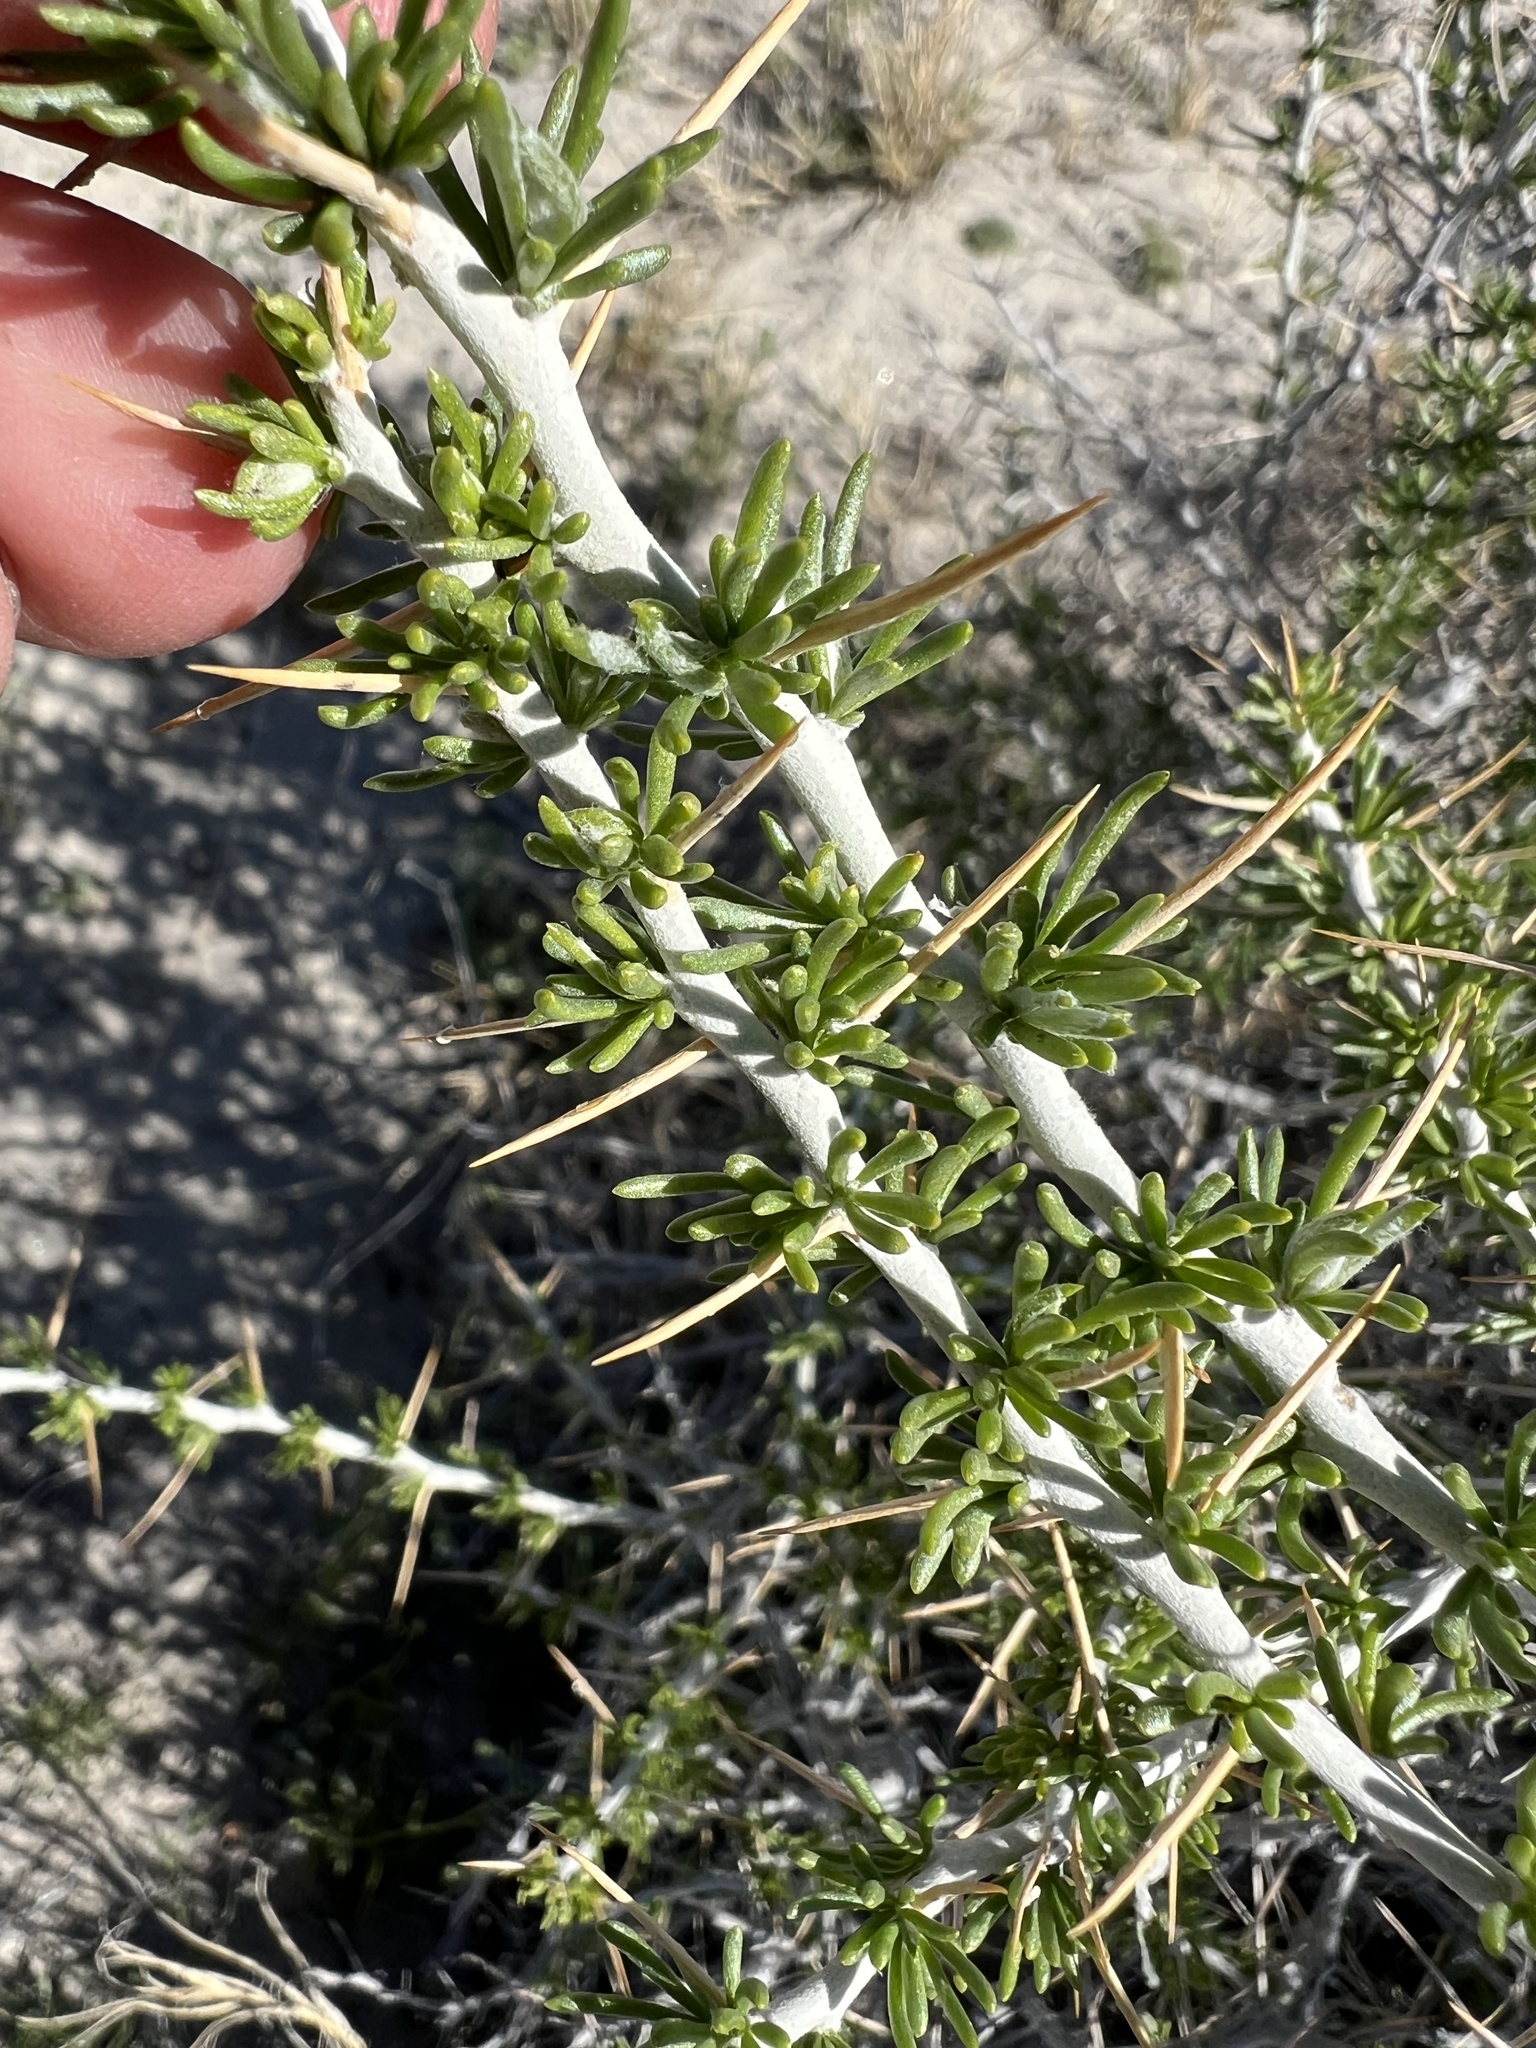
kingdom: Plantae
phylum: Tracheophyta
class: Magnoliopsida
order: Asterales
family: Asteraceae
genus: Tetradymia
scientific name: Tetradymia axillaris
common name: Long-spine horsebrush
